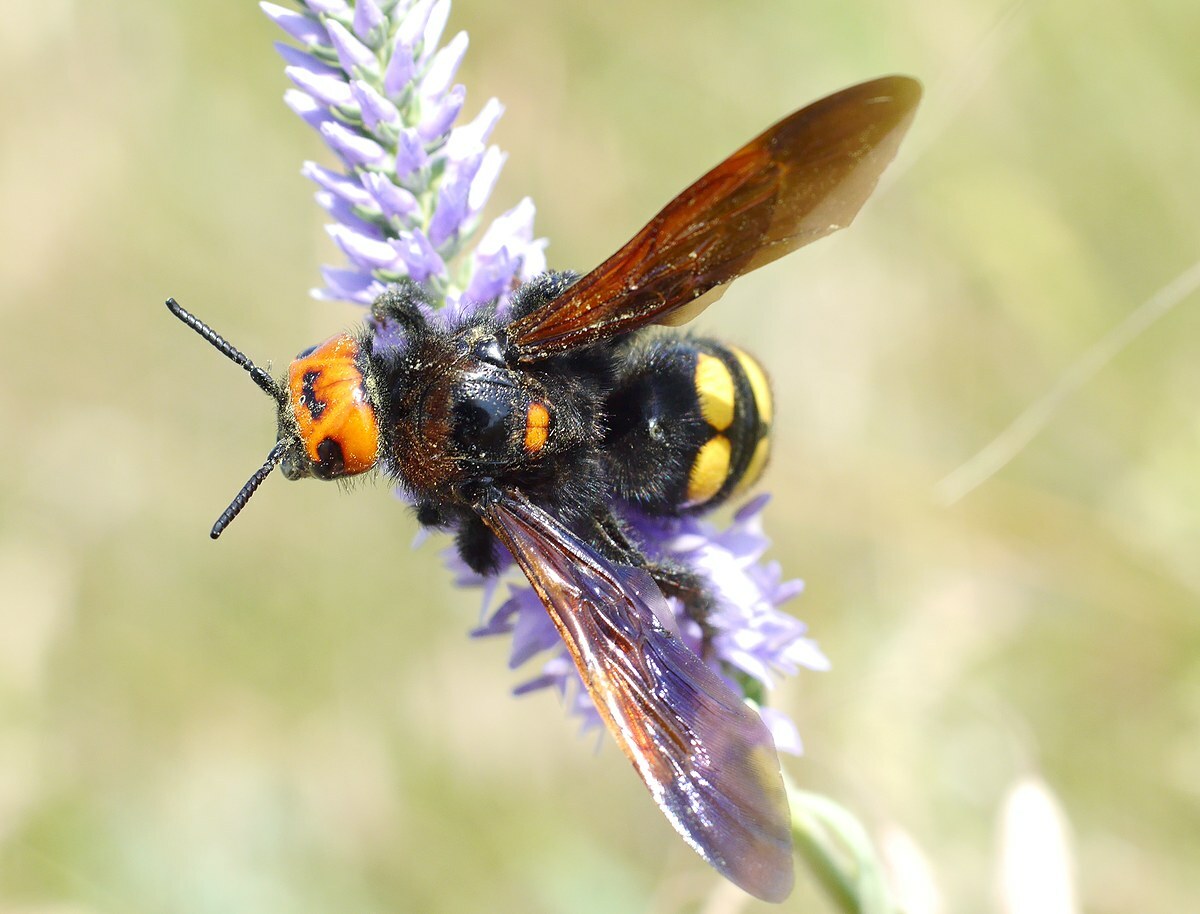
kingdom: Animalia
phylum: Arthropoda
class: Insecta
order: Hymenoptera
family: Scoliidae
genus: Megascolia
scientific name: Megascolia maculata
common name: Mammoth wasp
